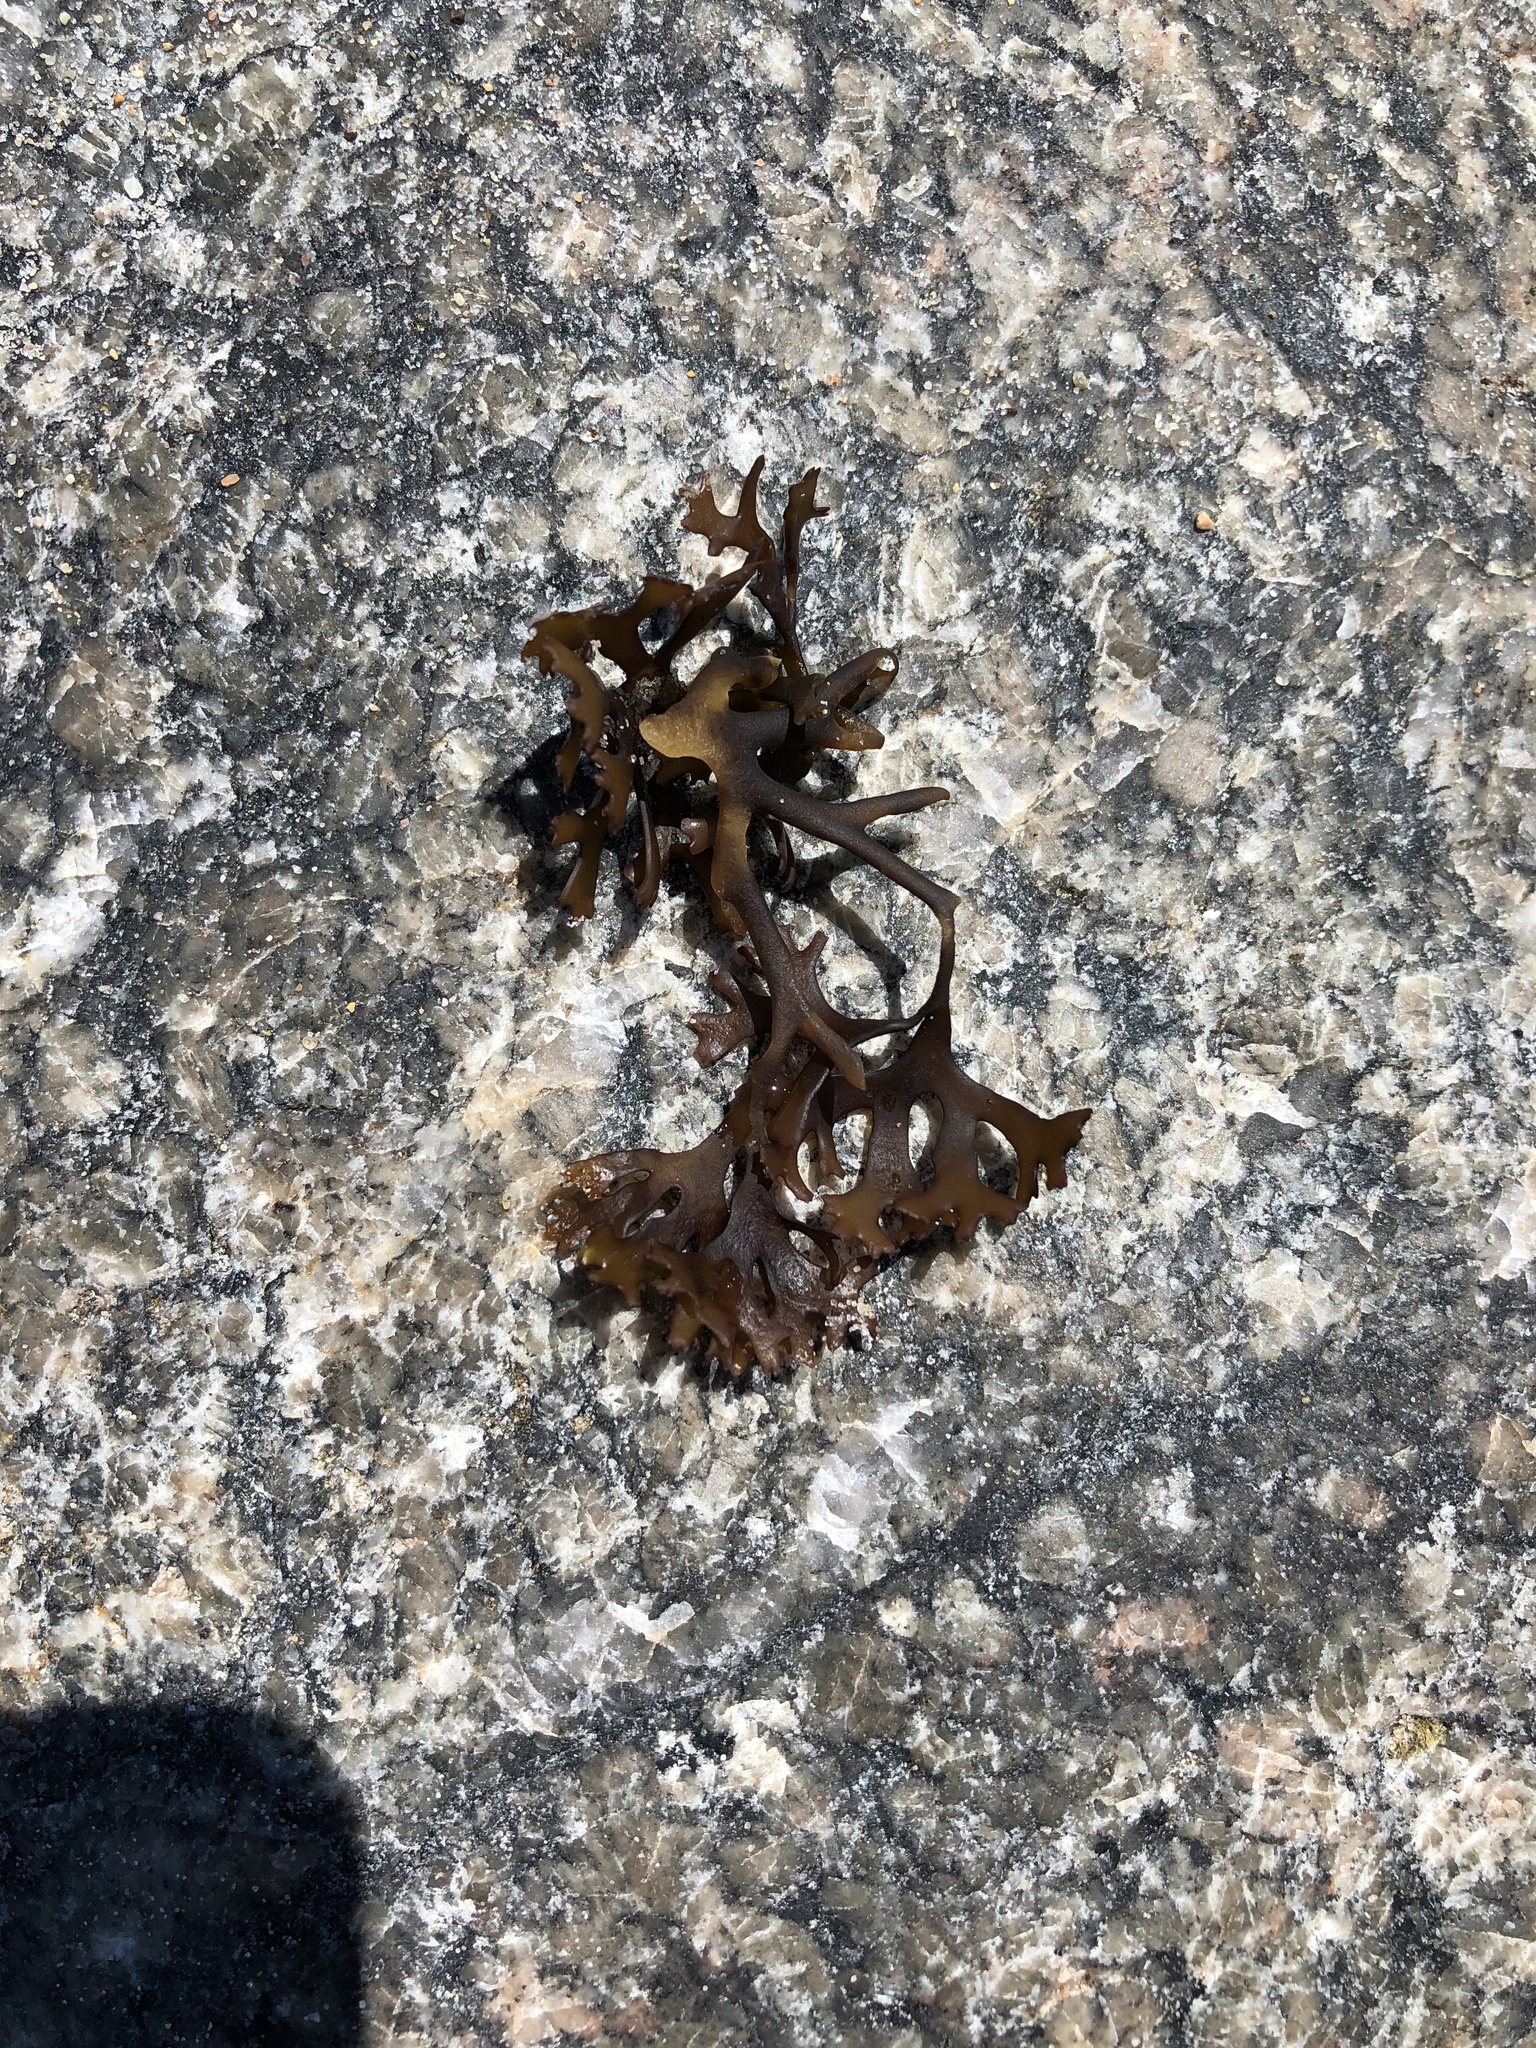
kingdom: Plantae
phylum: Rhodophyta
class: Florideophyceae
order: Gigartinales
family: Gigartinaceae
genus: Chondrus
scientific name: Chondrus crispus
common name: Carrageen
